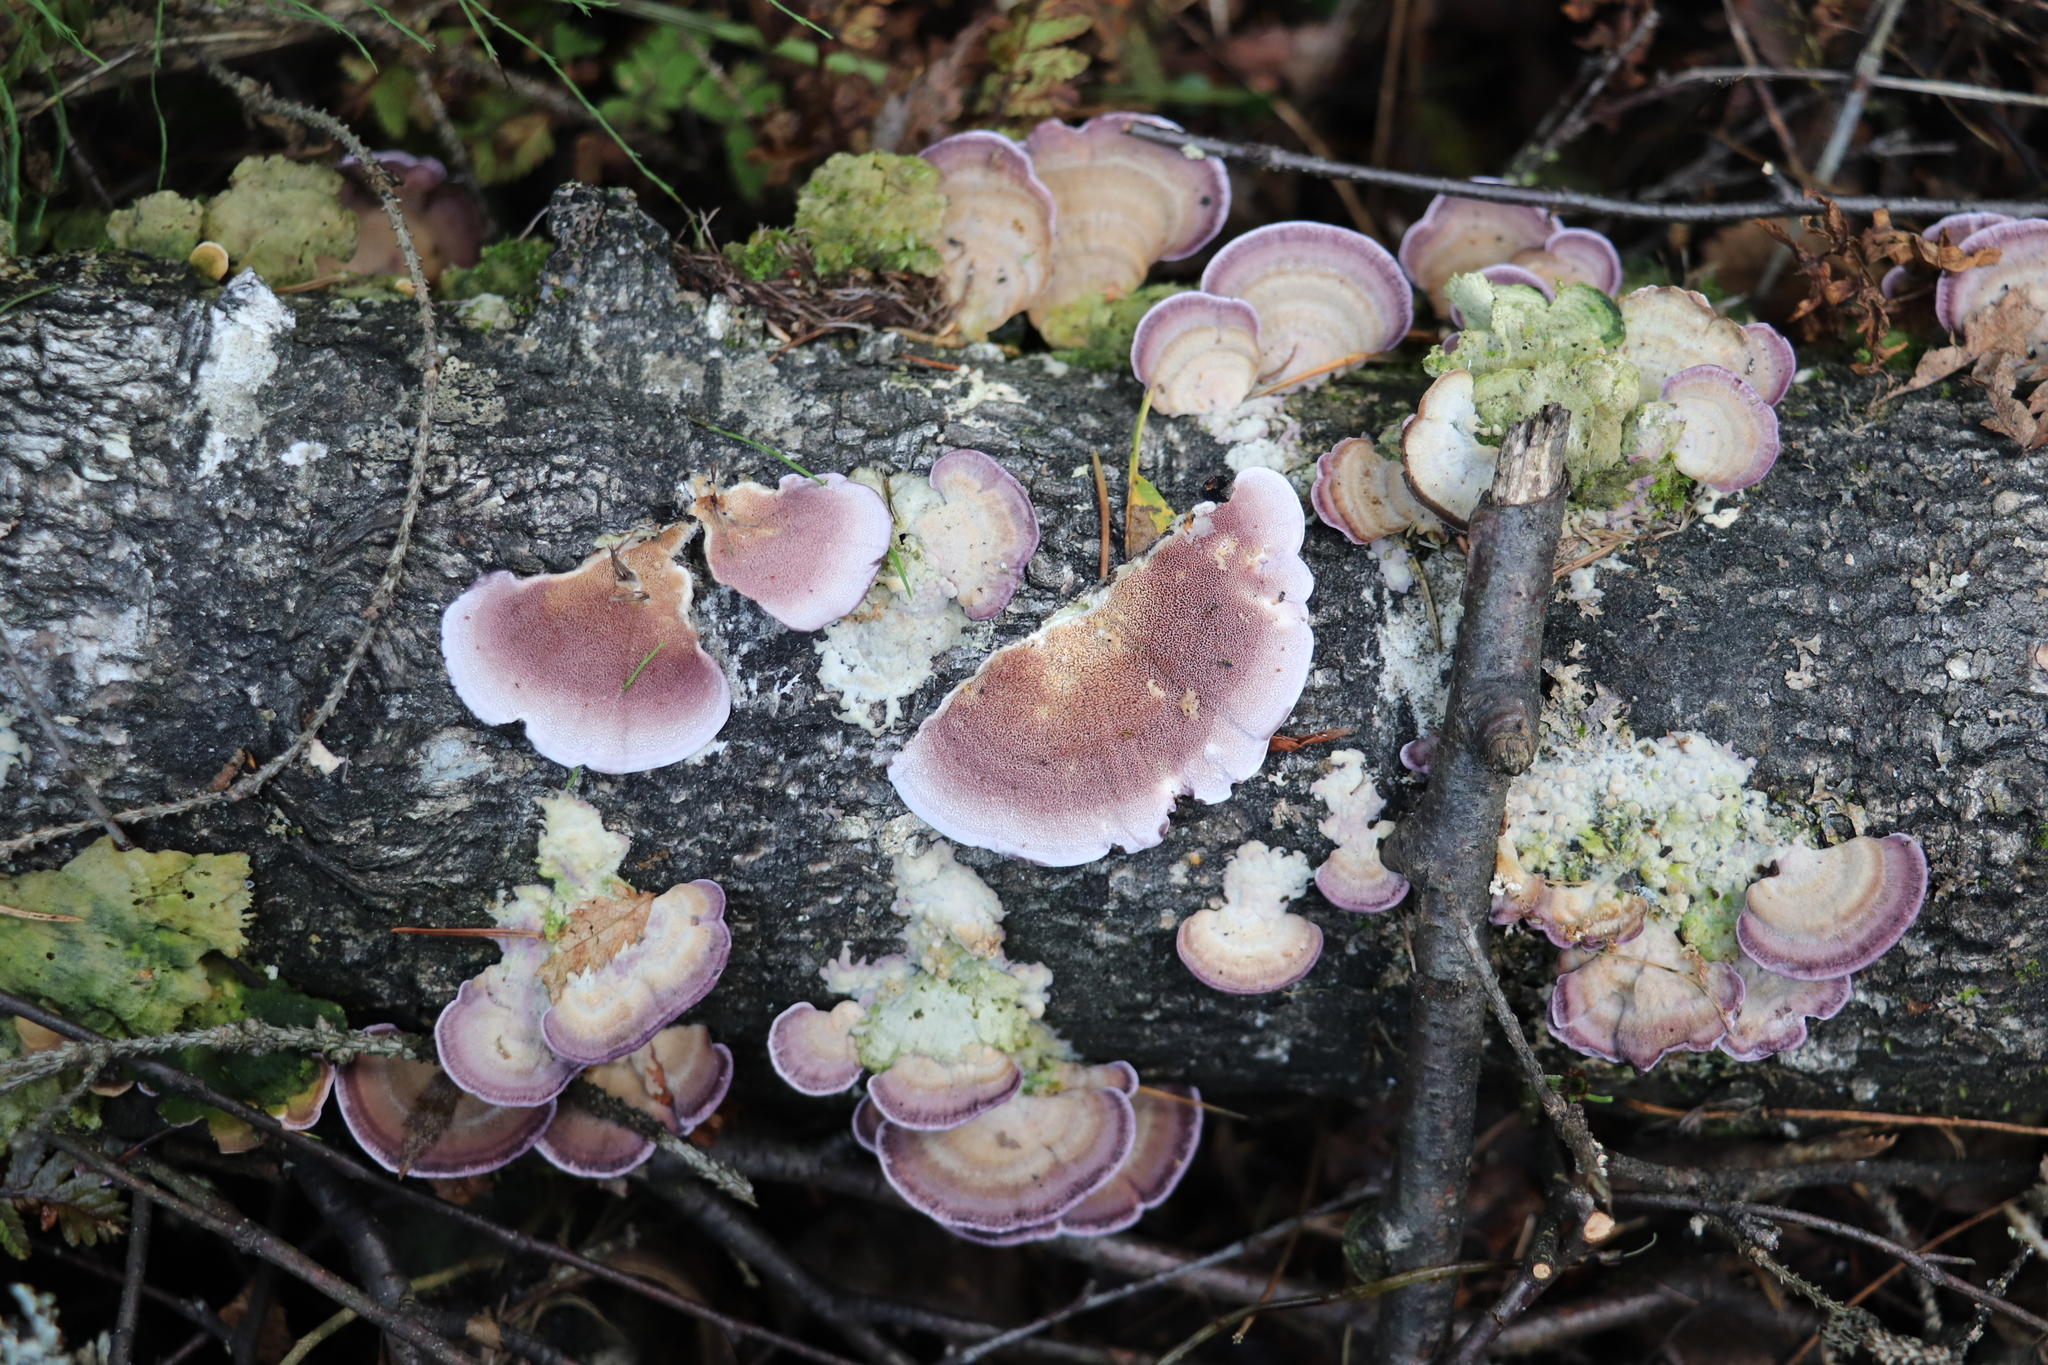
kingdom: Fungi
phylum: Basidiomycota
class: Agaricomycetes
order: Hymenochaetales
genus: Trichaptum
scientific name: Trichaptum biforme
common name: Violet-toothed polypore
